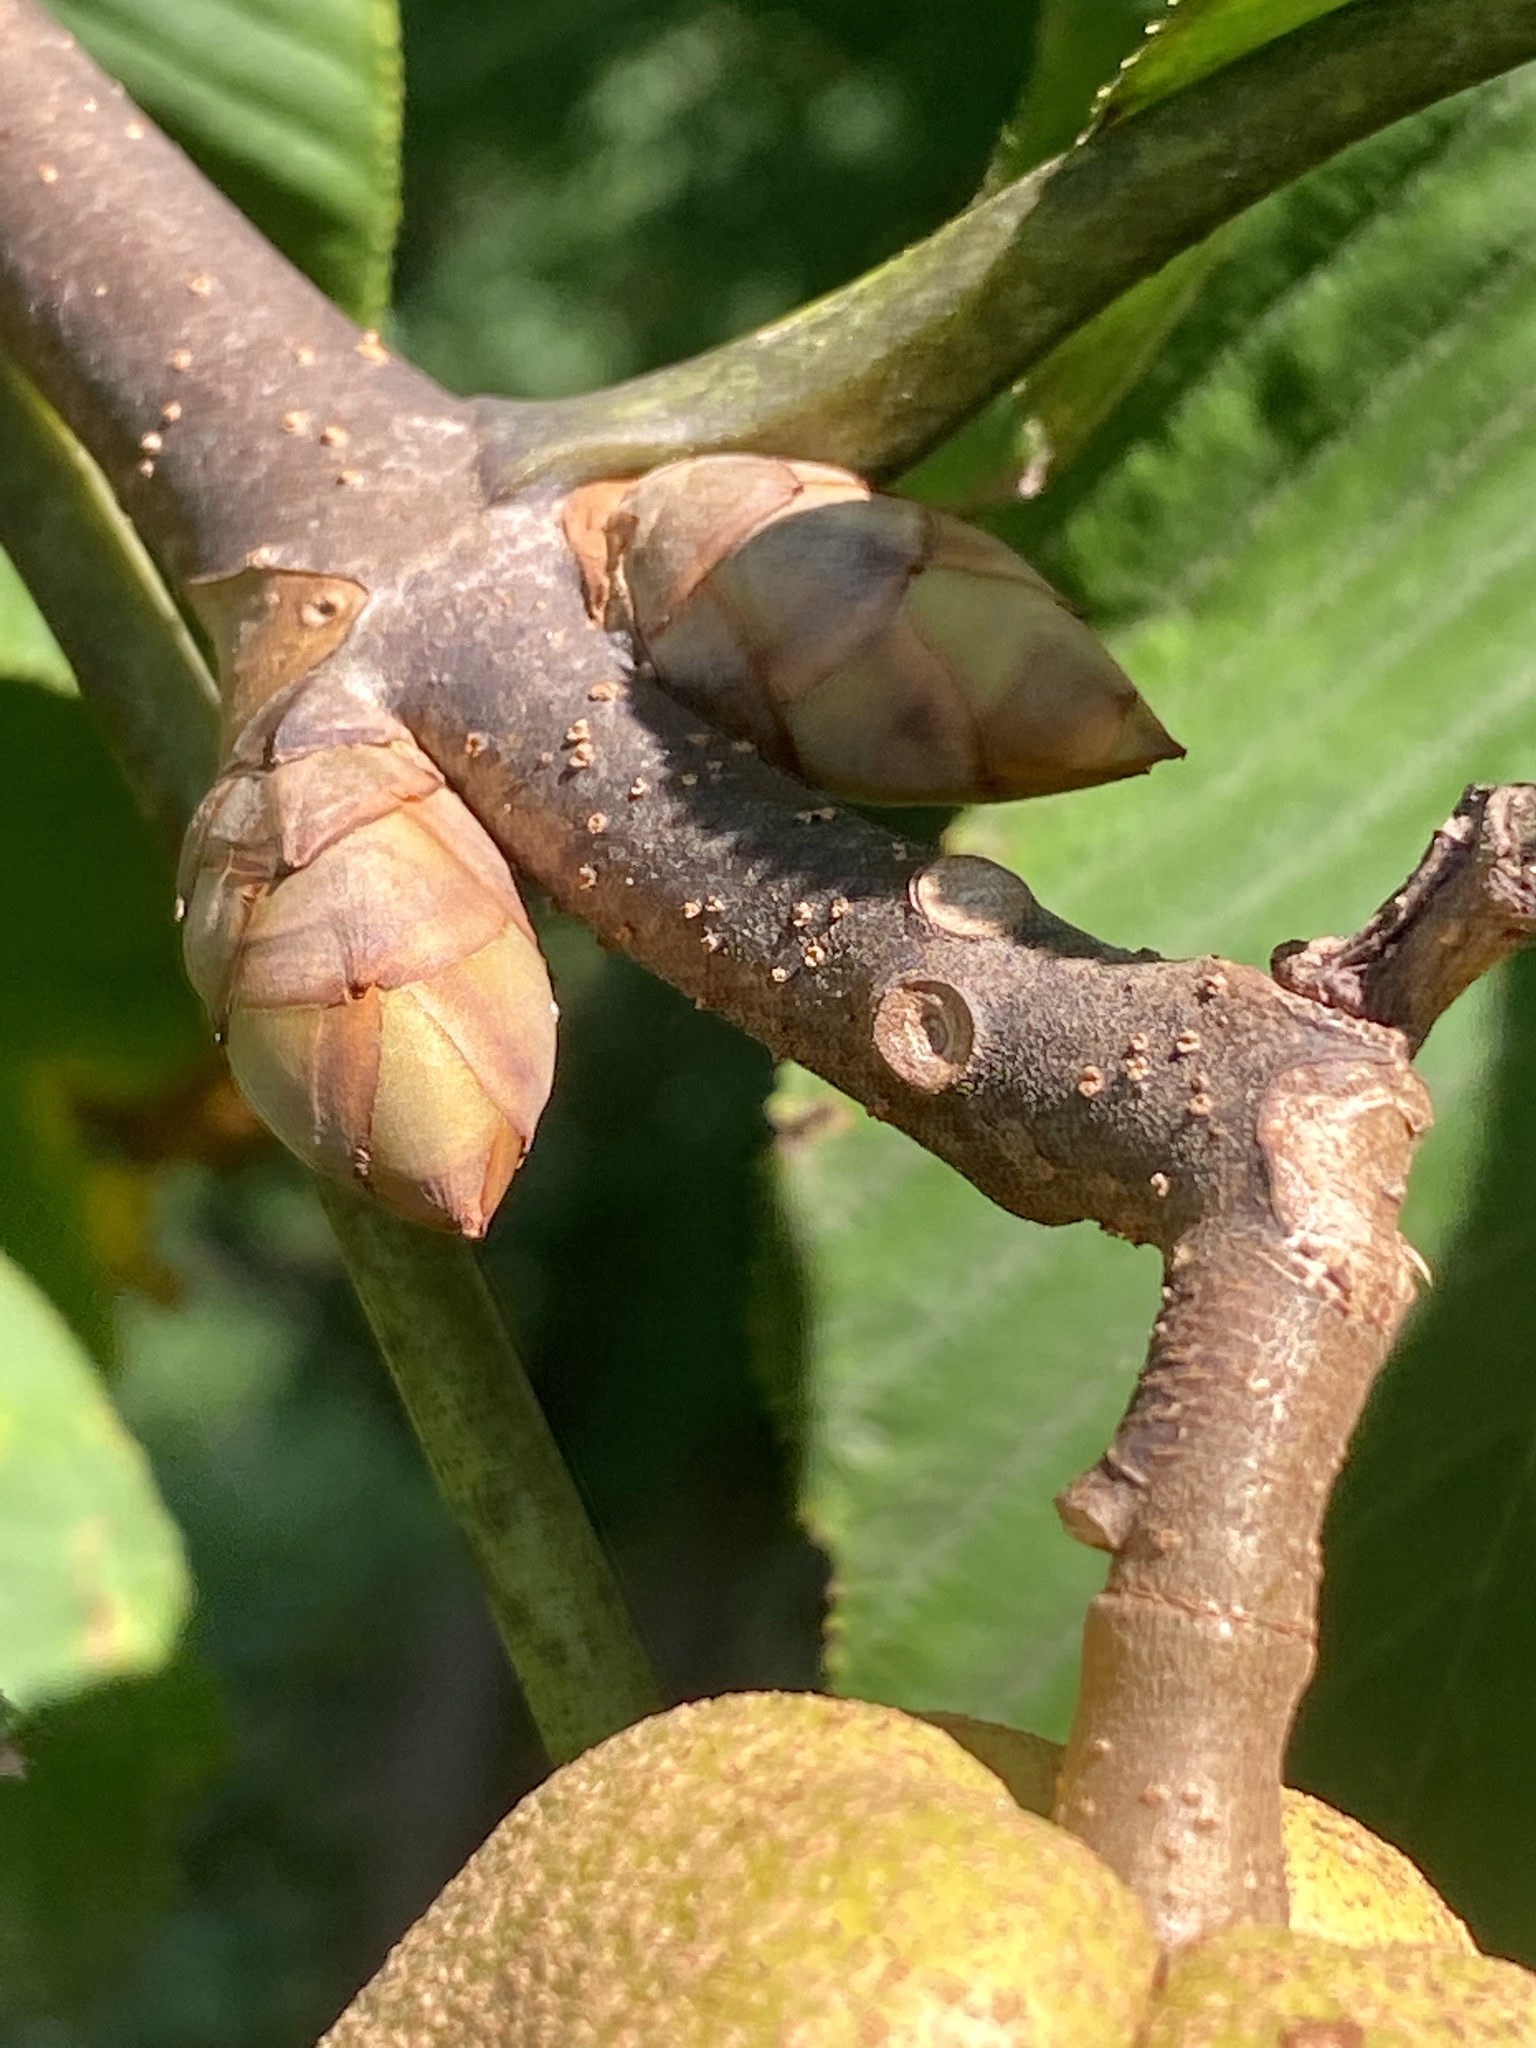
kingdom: Plantae
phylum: Tracheophyta
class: Magnoliopsida
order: Sapindales
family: Sapindaceae
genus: Aesculus
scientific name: Aesculus flava
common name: Yellow buckeye
